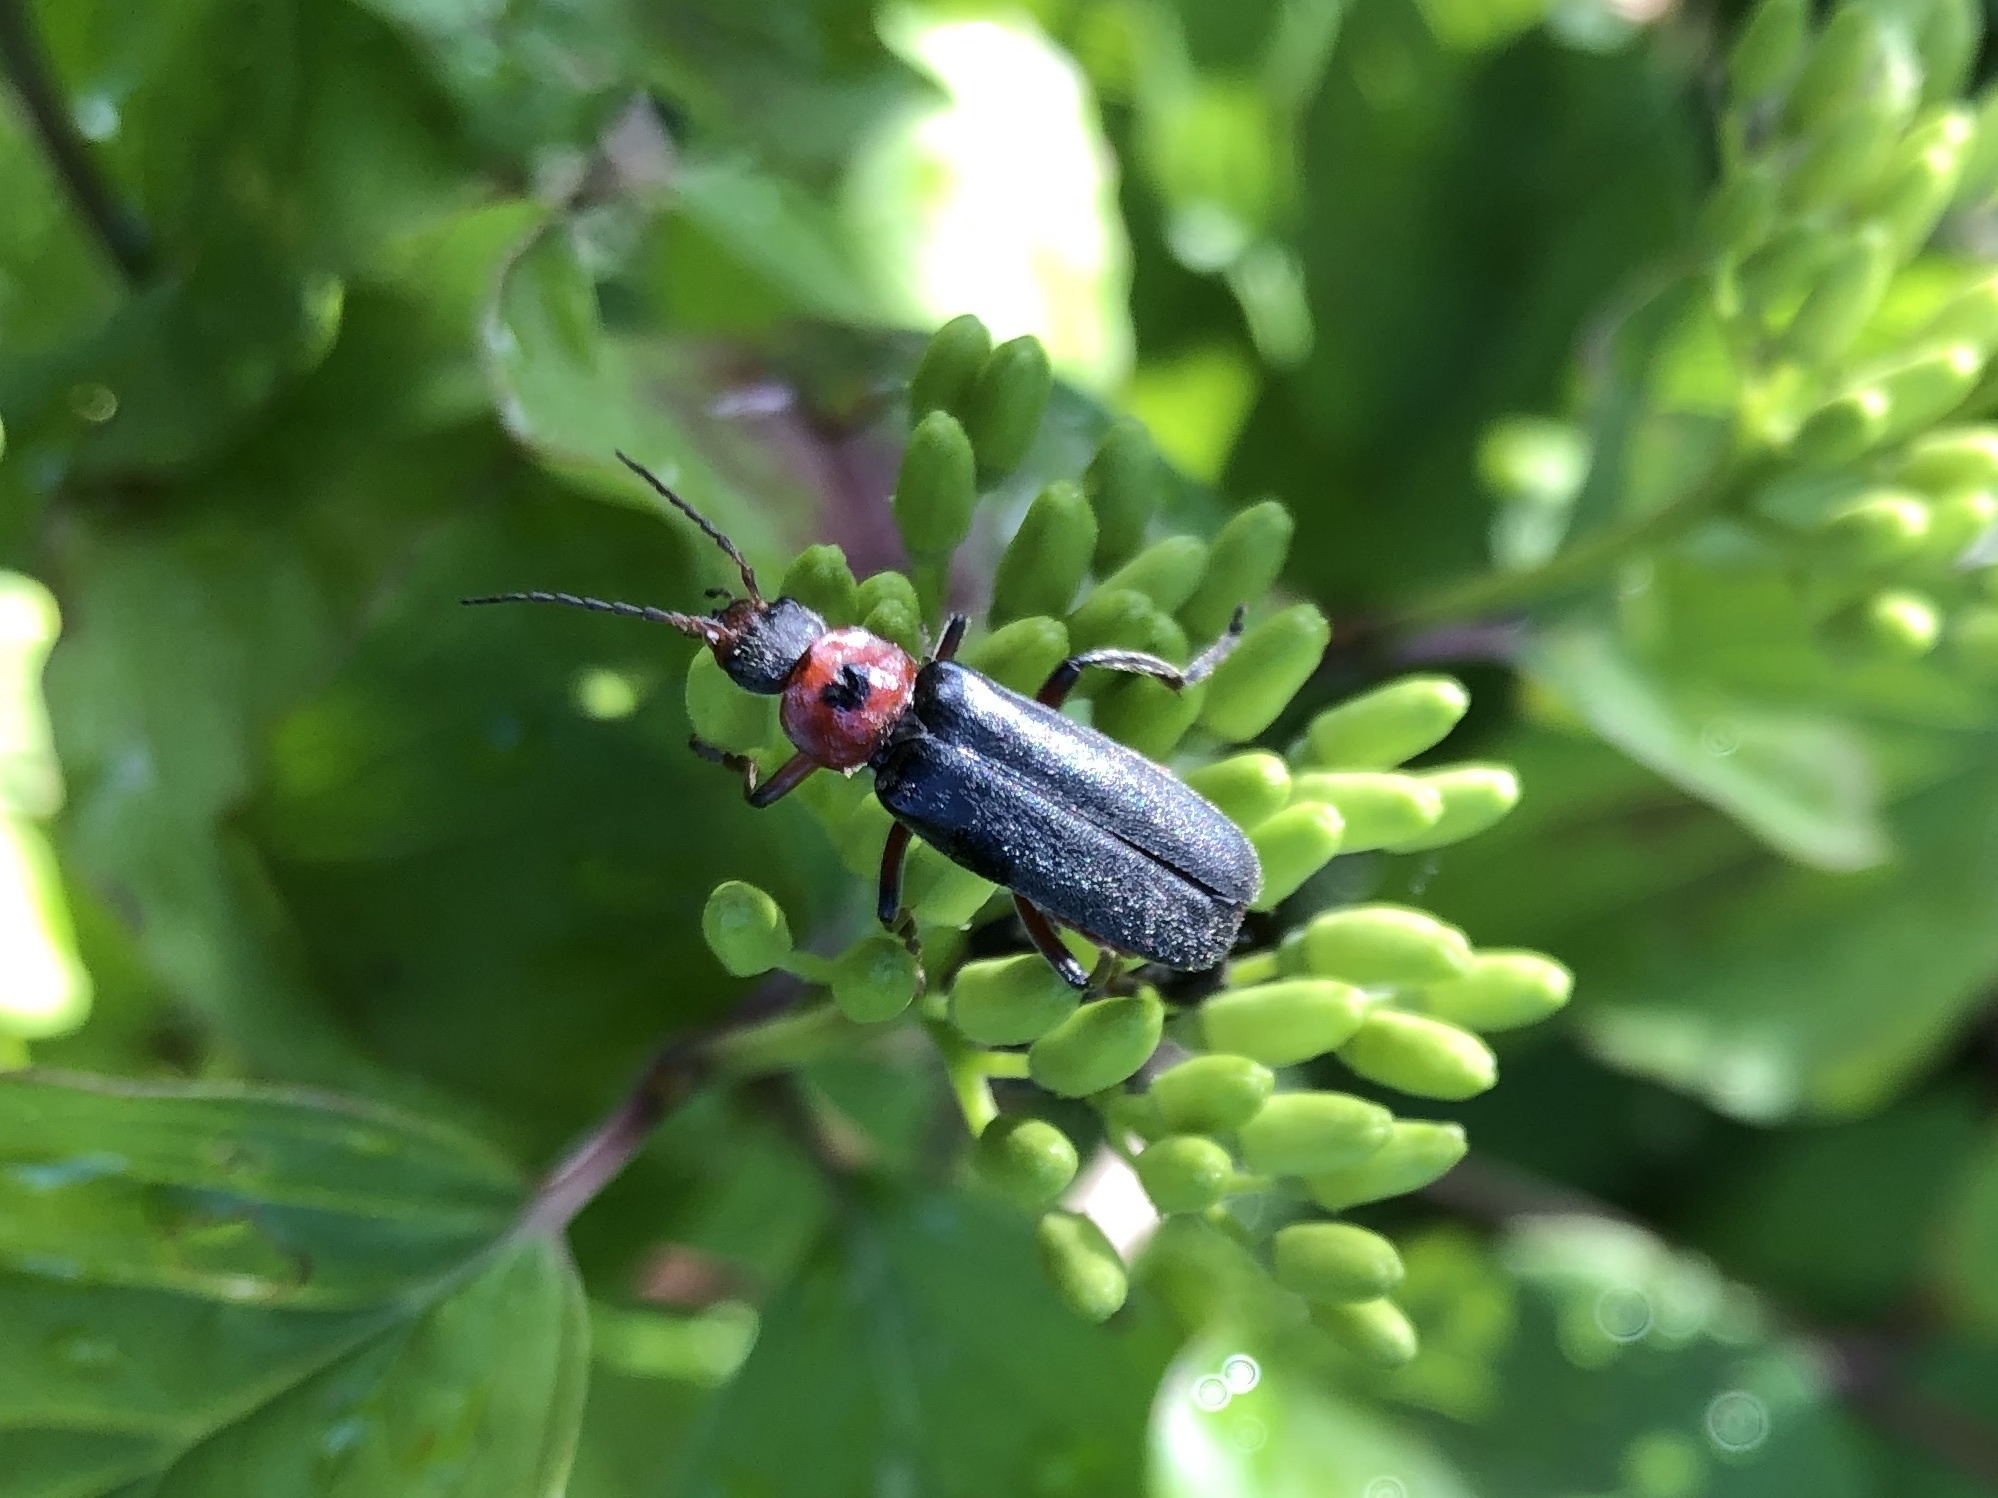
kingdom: Animalia
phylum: Arthropoda
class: Insecta
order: Coleoptera
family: Cantharidae
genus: Cantharis
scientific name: Cantharis rustica
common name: Soldier beetle
